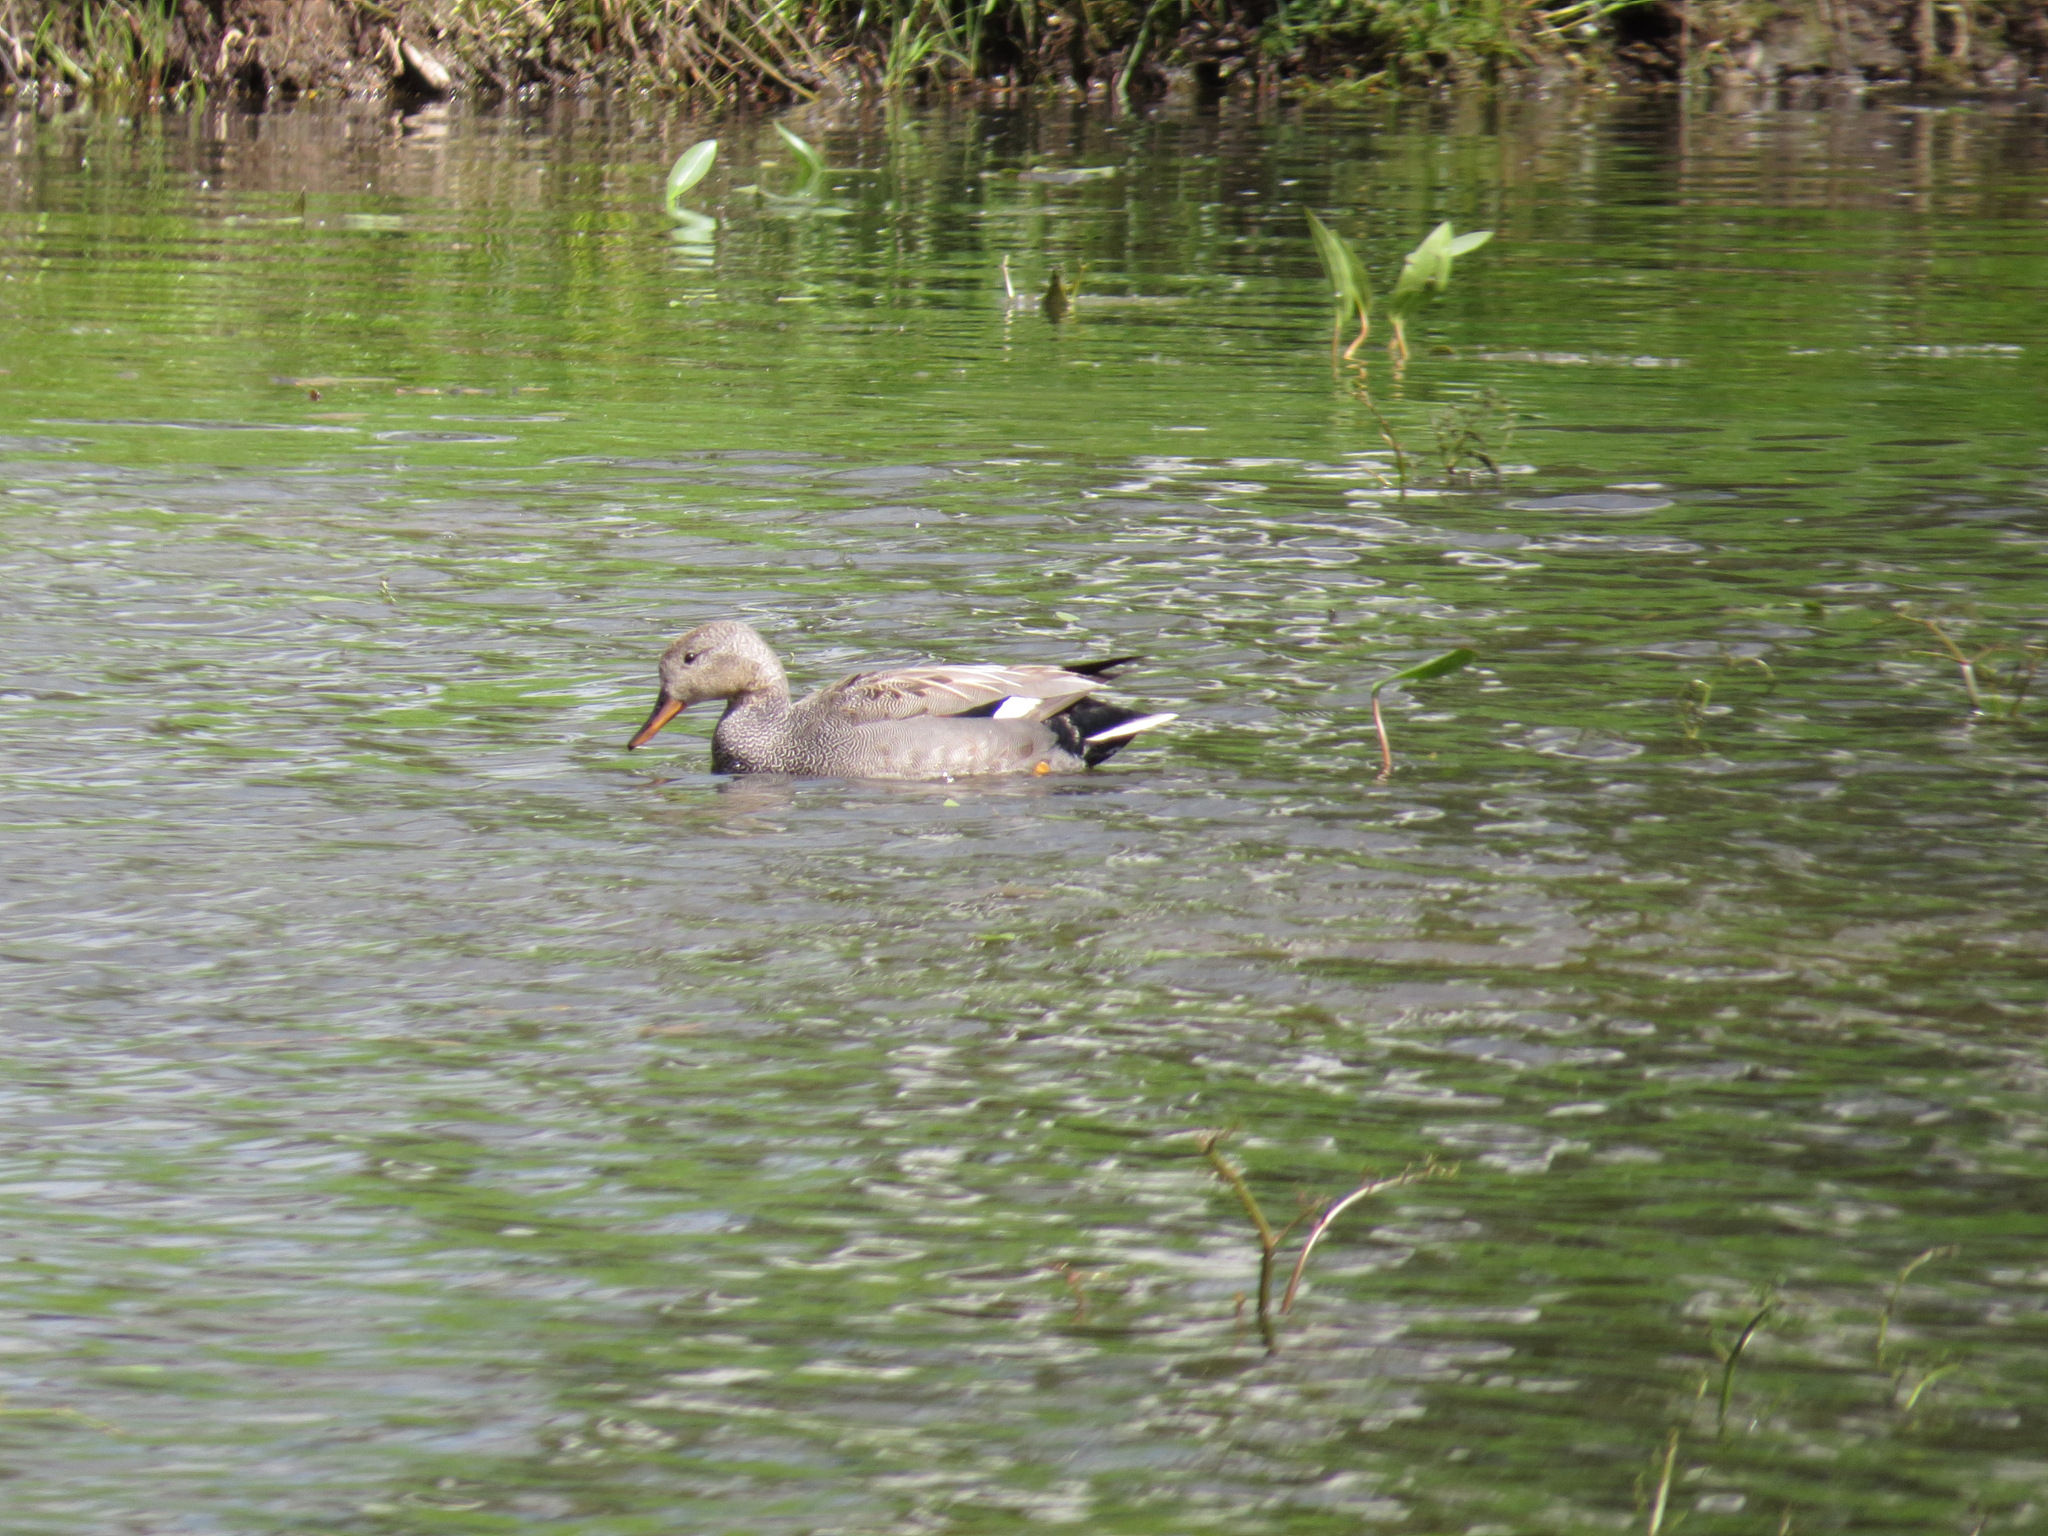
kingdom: Animalia
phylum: Chordata
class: Aves
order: Anseriformes
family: Anatidae
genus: Mareca
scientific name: Mareca strepera
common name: Gadwall
